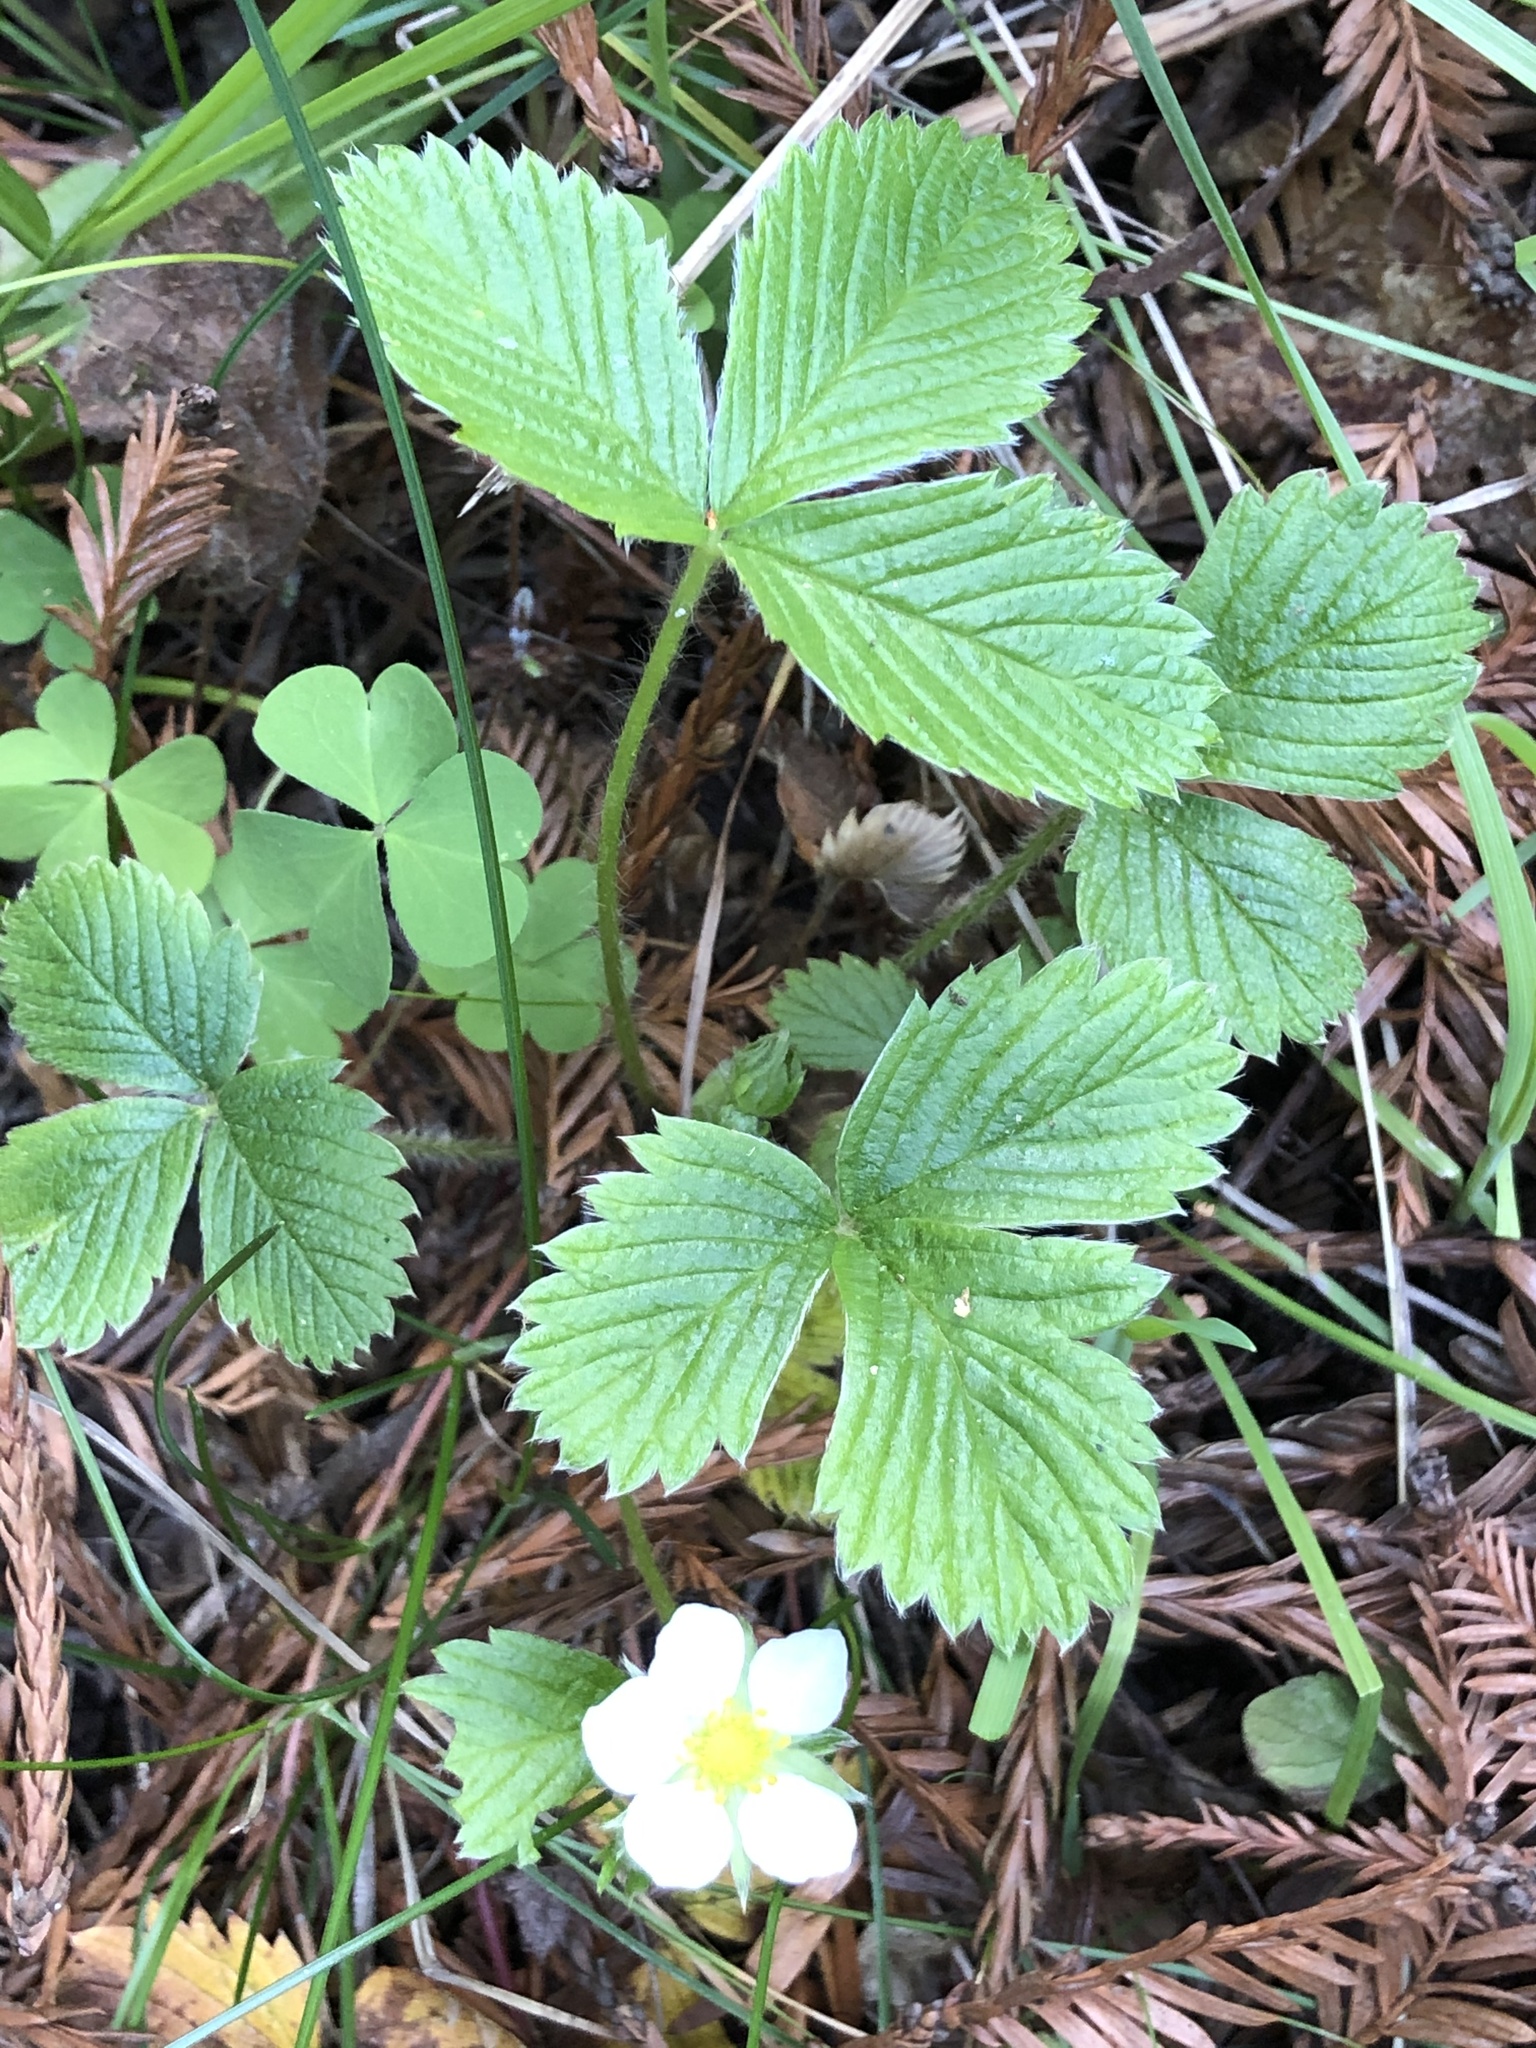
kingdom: Plantae
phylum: Tracheophyta
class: Magnoliopsida
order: Rosales
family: Rosaceae
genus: Fragaria
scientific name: Fragaria vesca
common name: Wild strawberry
